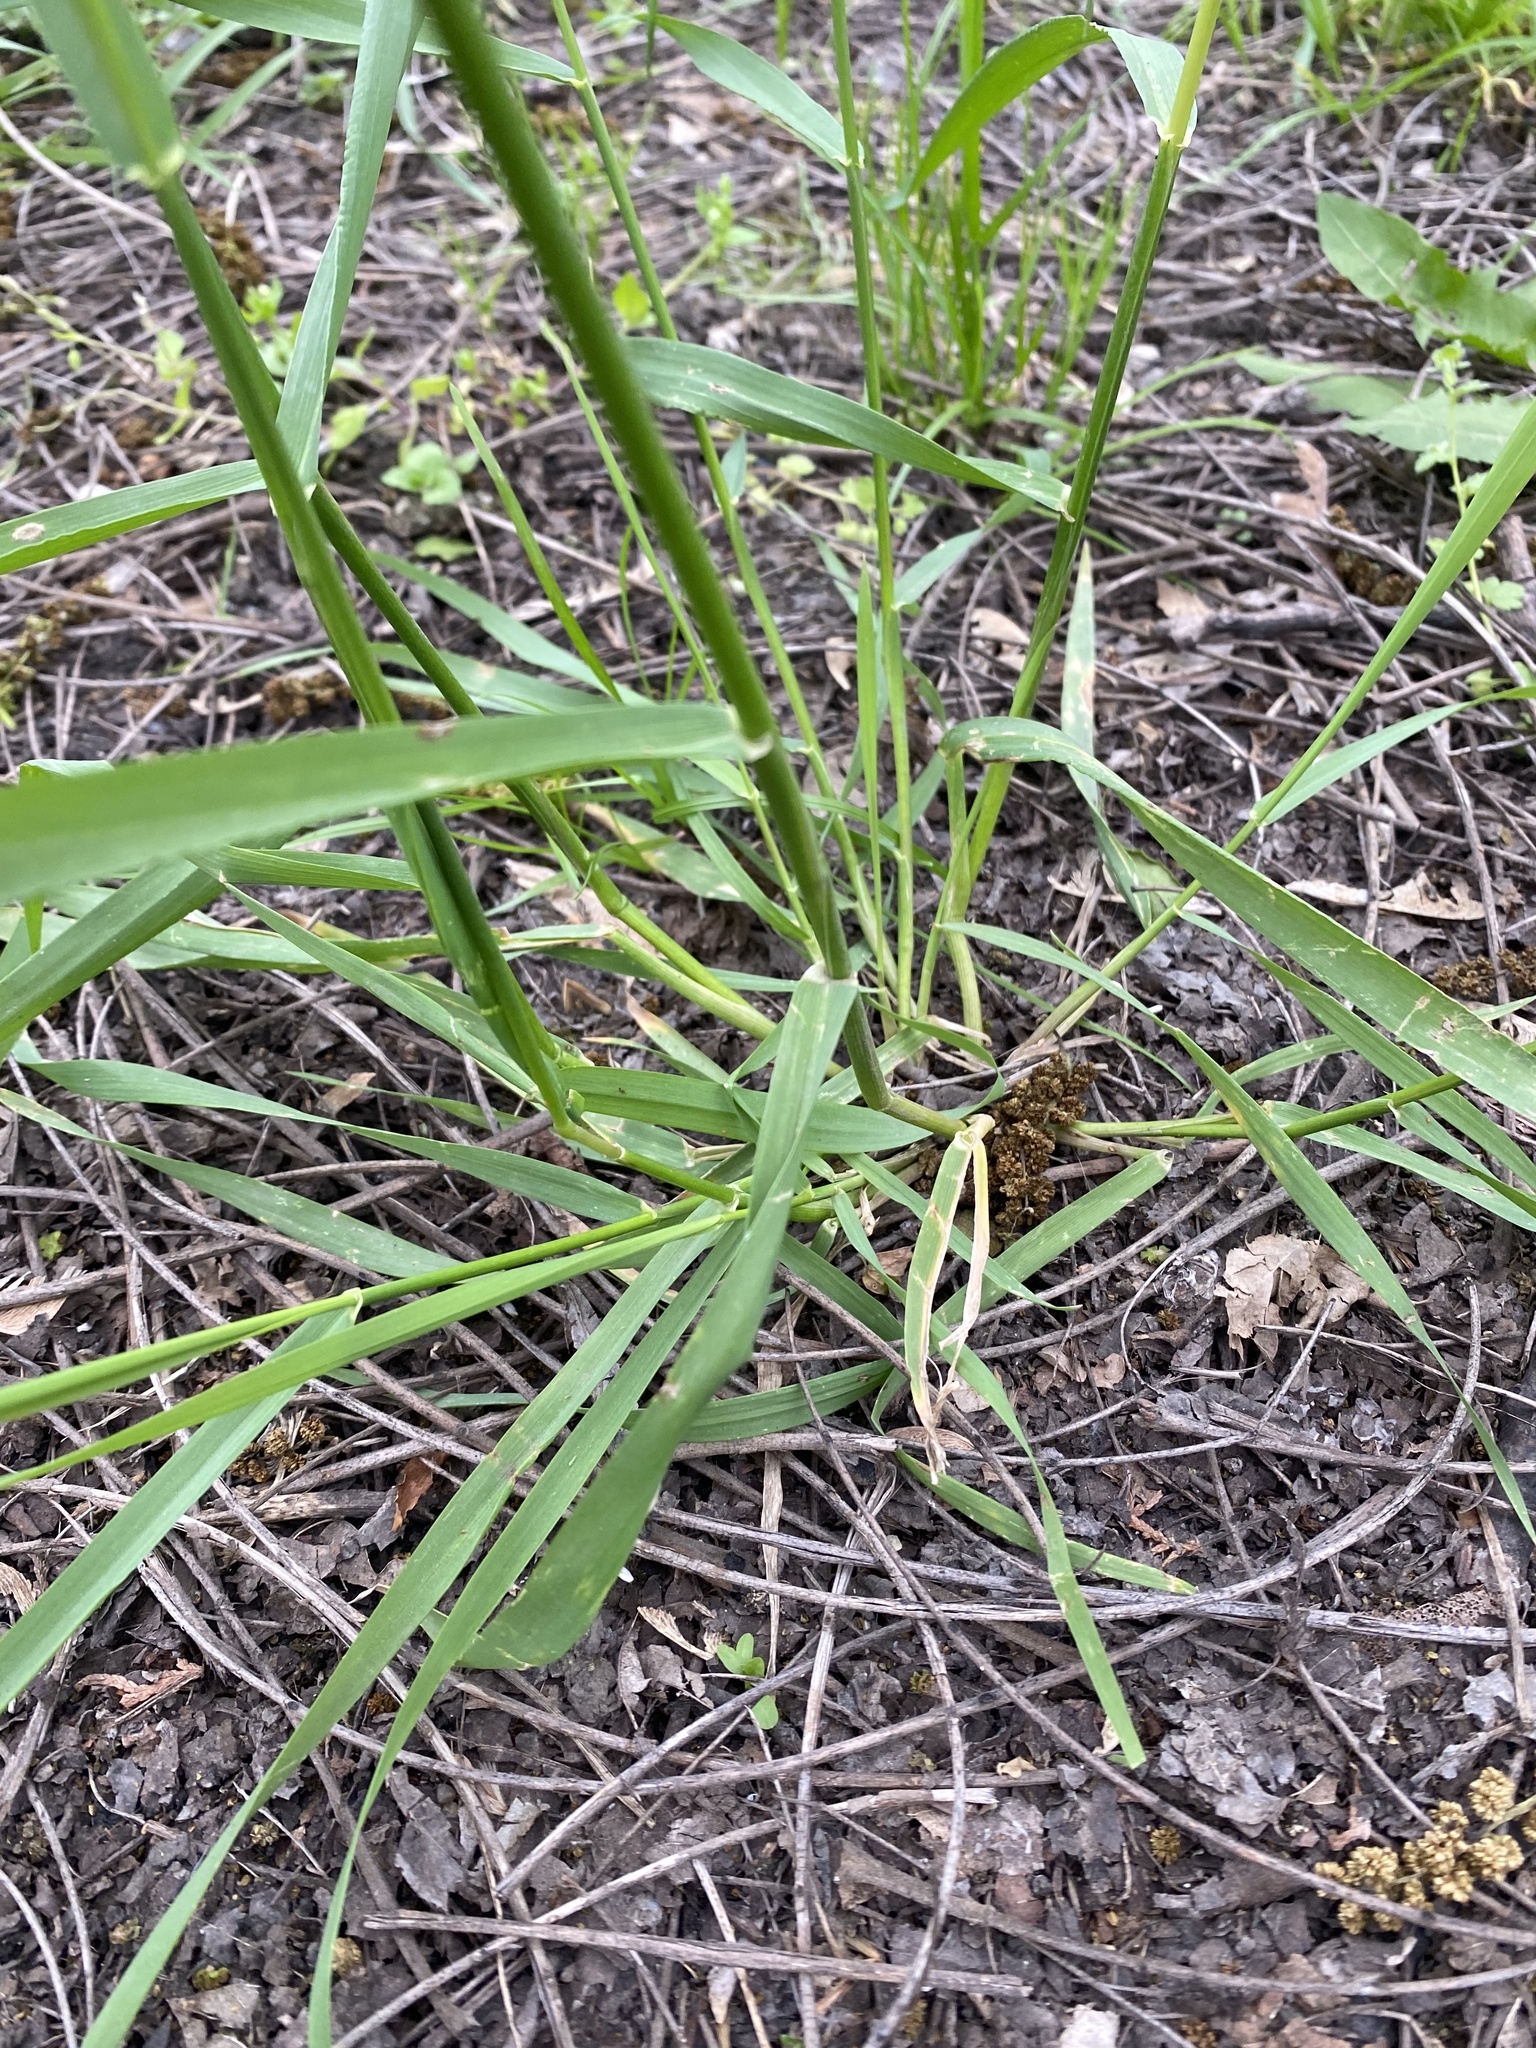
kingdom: Plantae
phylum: Tracheophyta
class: Liliopsida
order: Poales
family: Poaceae
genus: Elymus
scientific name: Elymus repens
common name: Quackgrass
